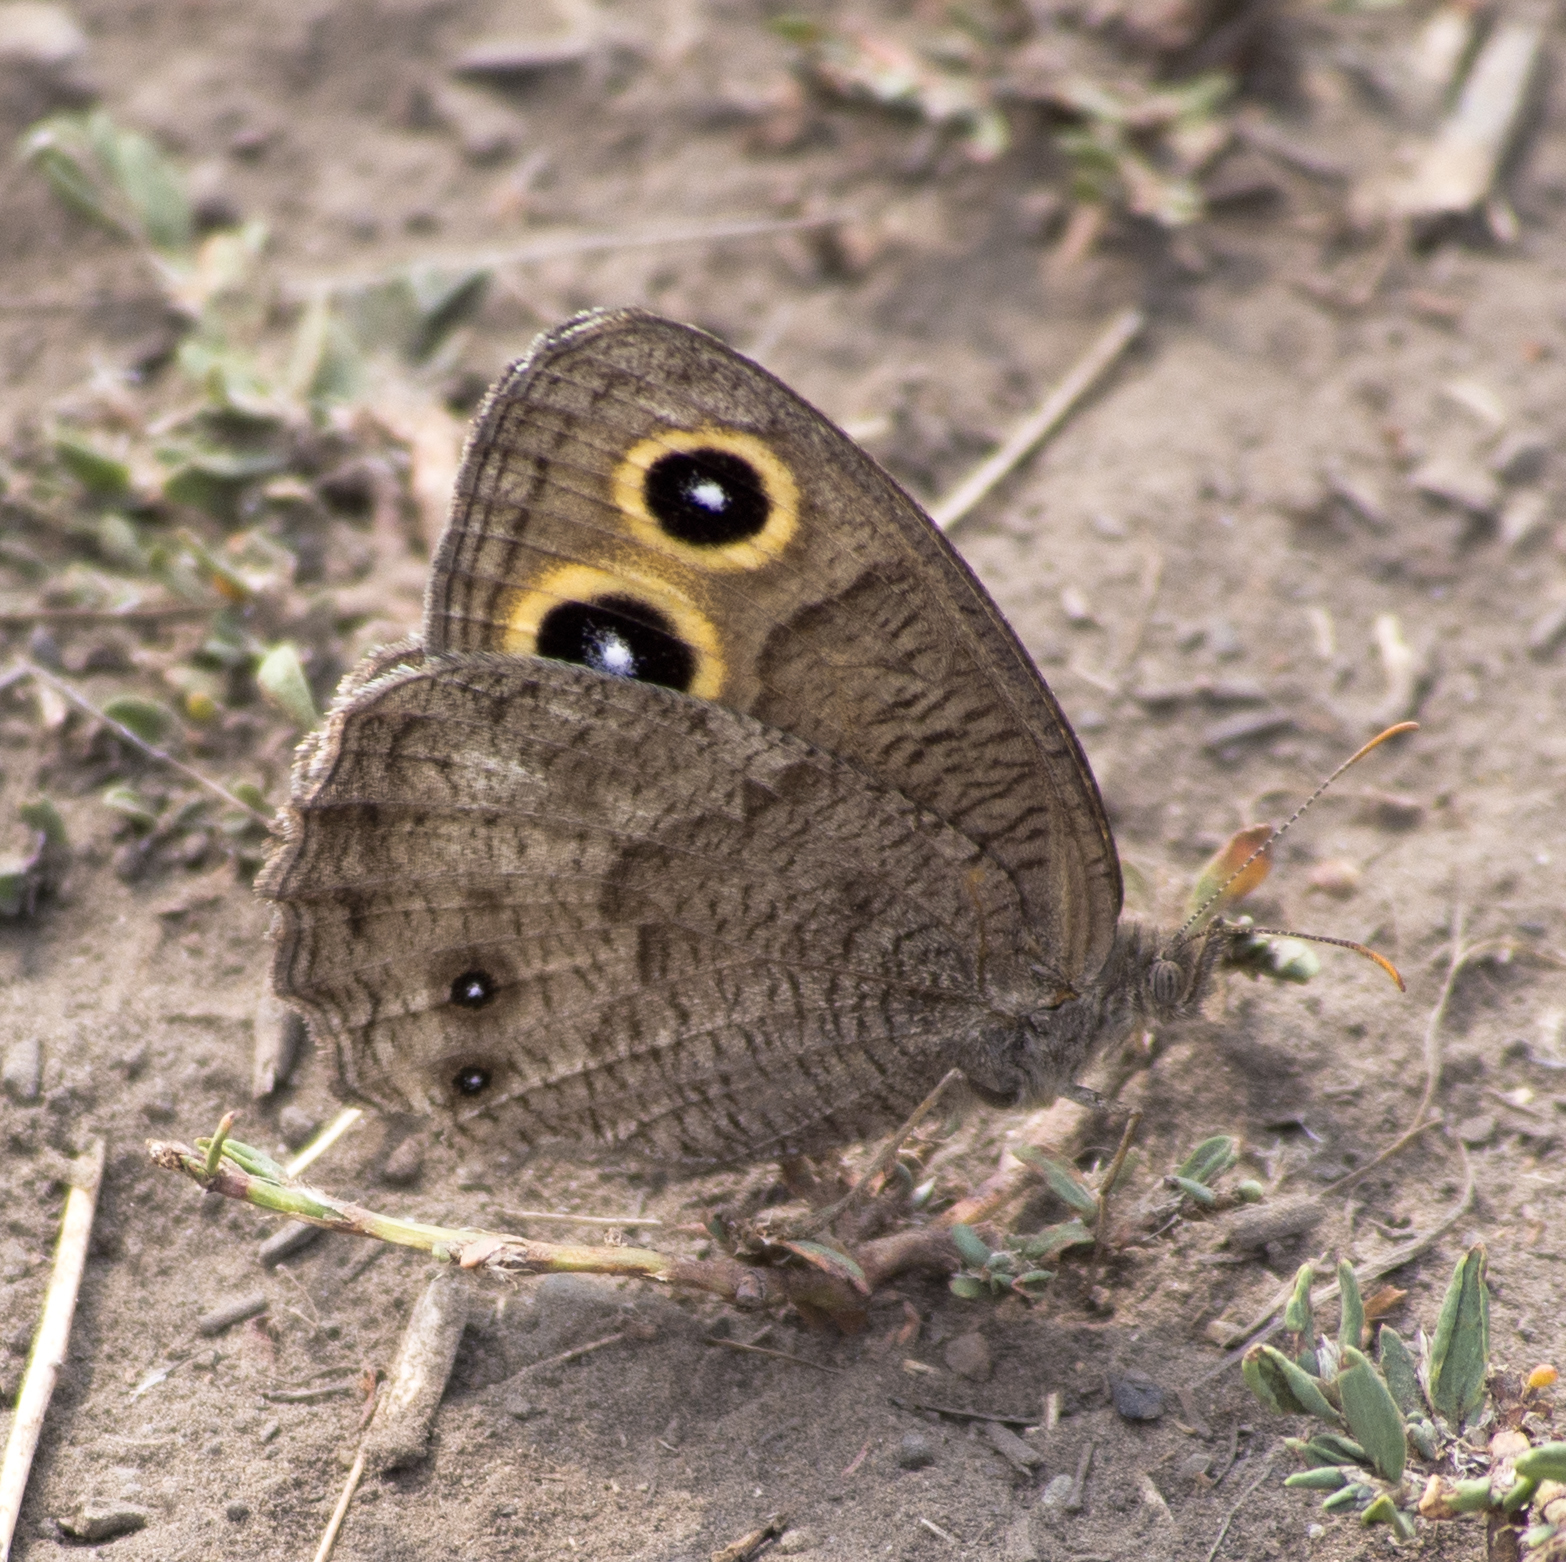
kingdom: Animalia
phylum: Arthropoda
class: Insecta
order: Lepidoptera
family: Nymphalidae
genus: Cercyonis
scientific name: Cercyonis pegala
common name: Common wood-nymph
